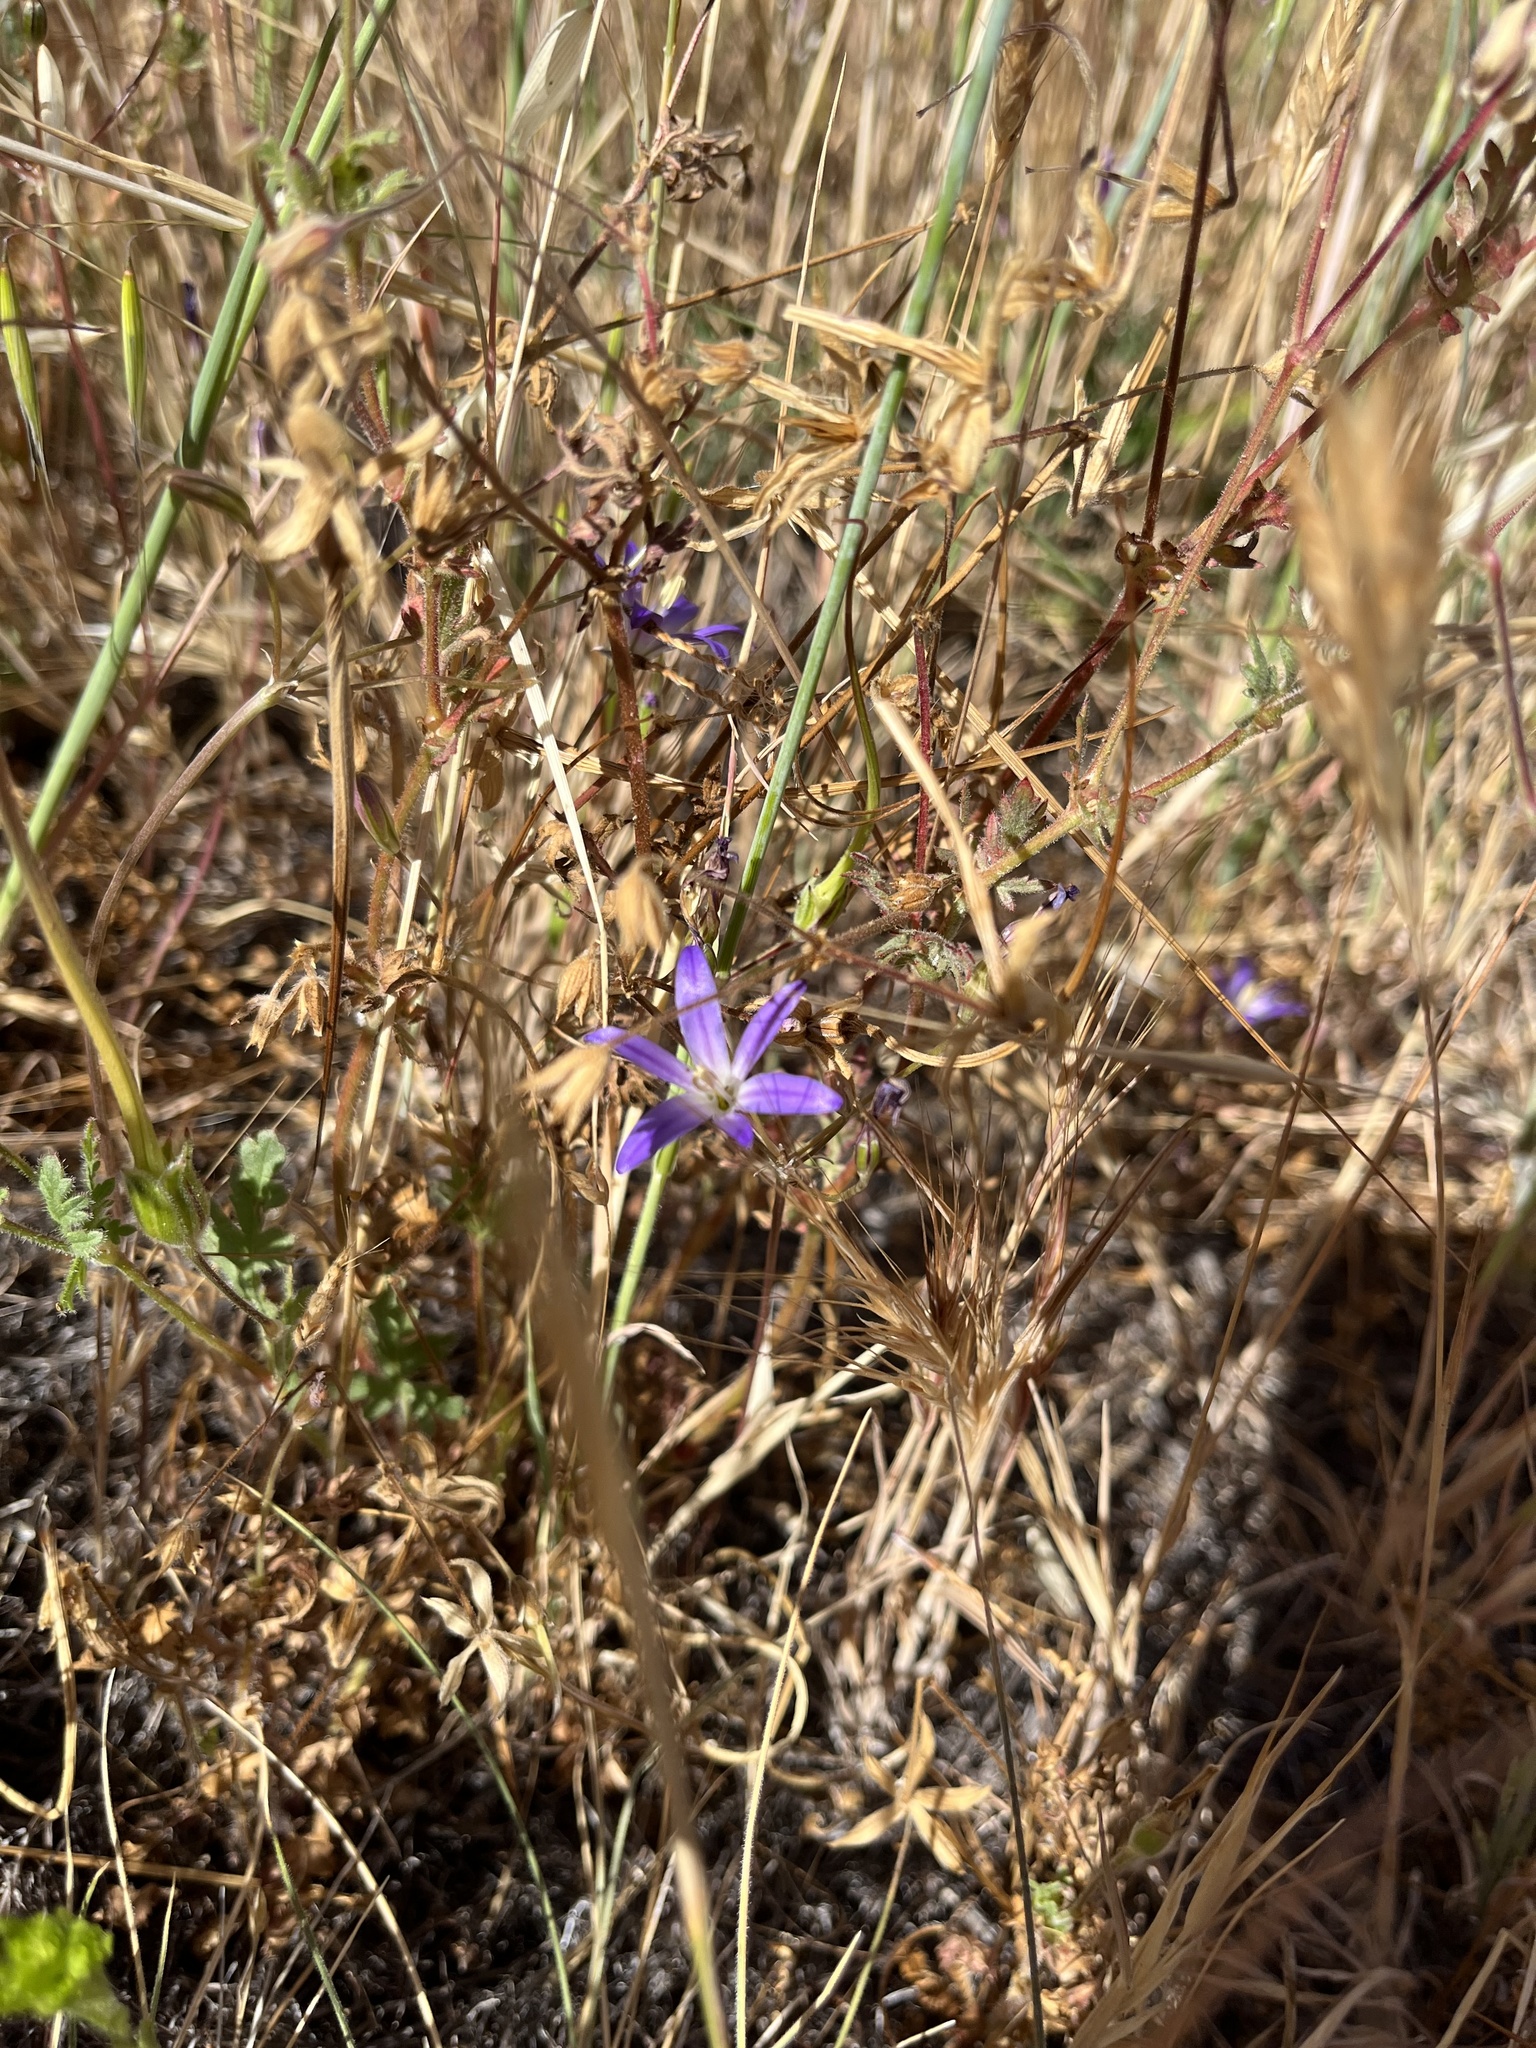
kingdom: Plantae
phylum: Tracheophyta
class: Liliopsida
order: Asparagales
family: Asparagaceae
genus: Brodiaea
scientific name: Brodiaea orcuttii
